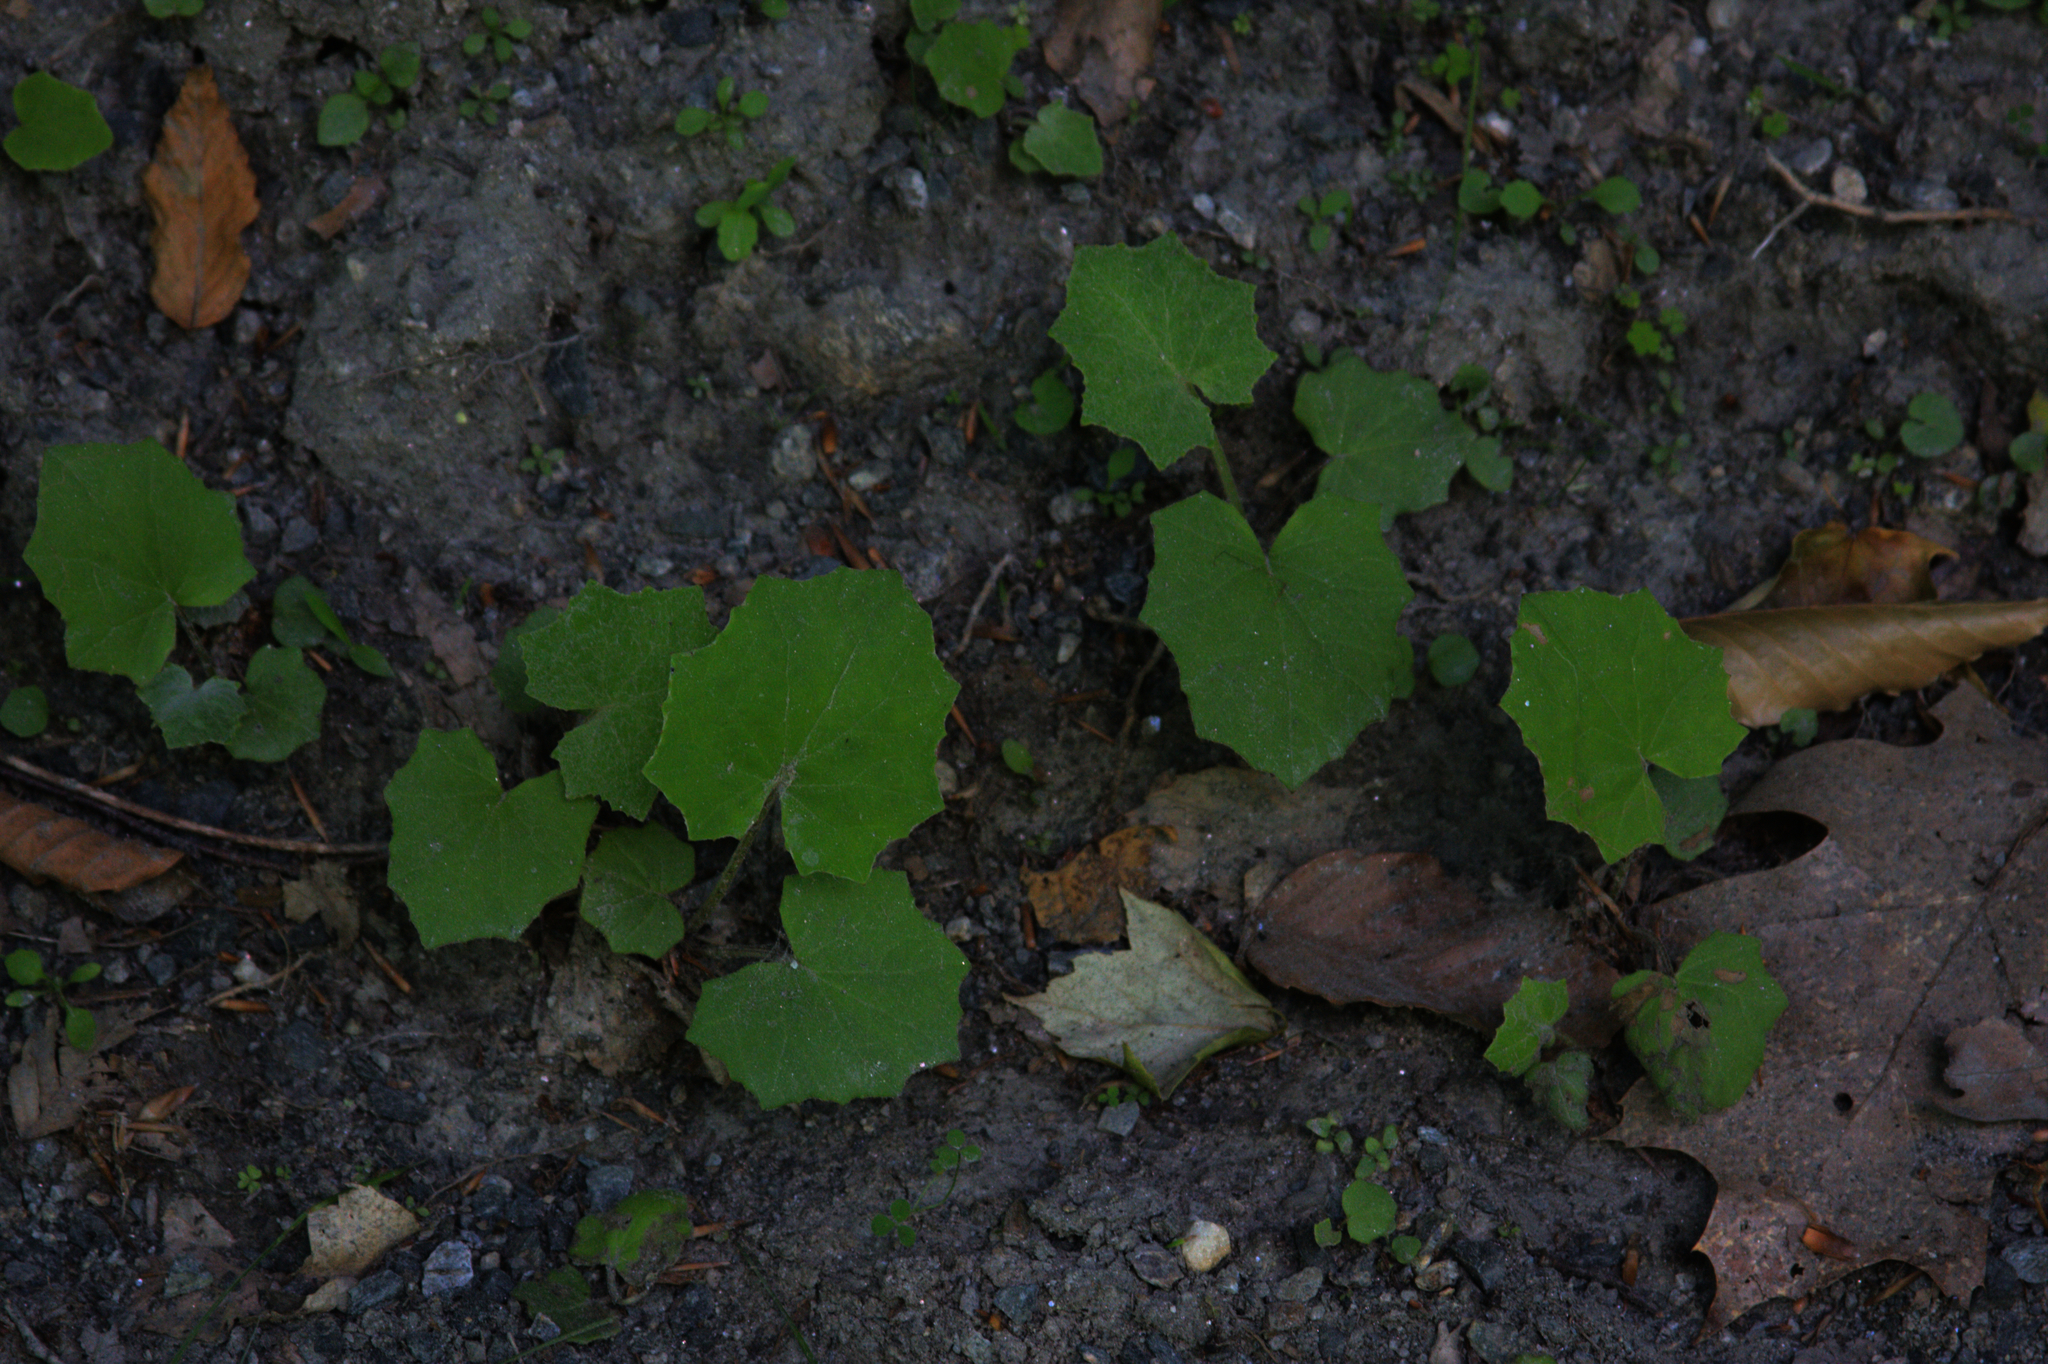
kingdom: Plantae
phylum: Tracheophyta
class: Magnoliopsida
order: Asterales
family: Asteraceae
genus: Tussilago
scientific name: Tussilago farfara
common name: Coltsfoot
